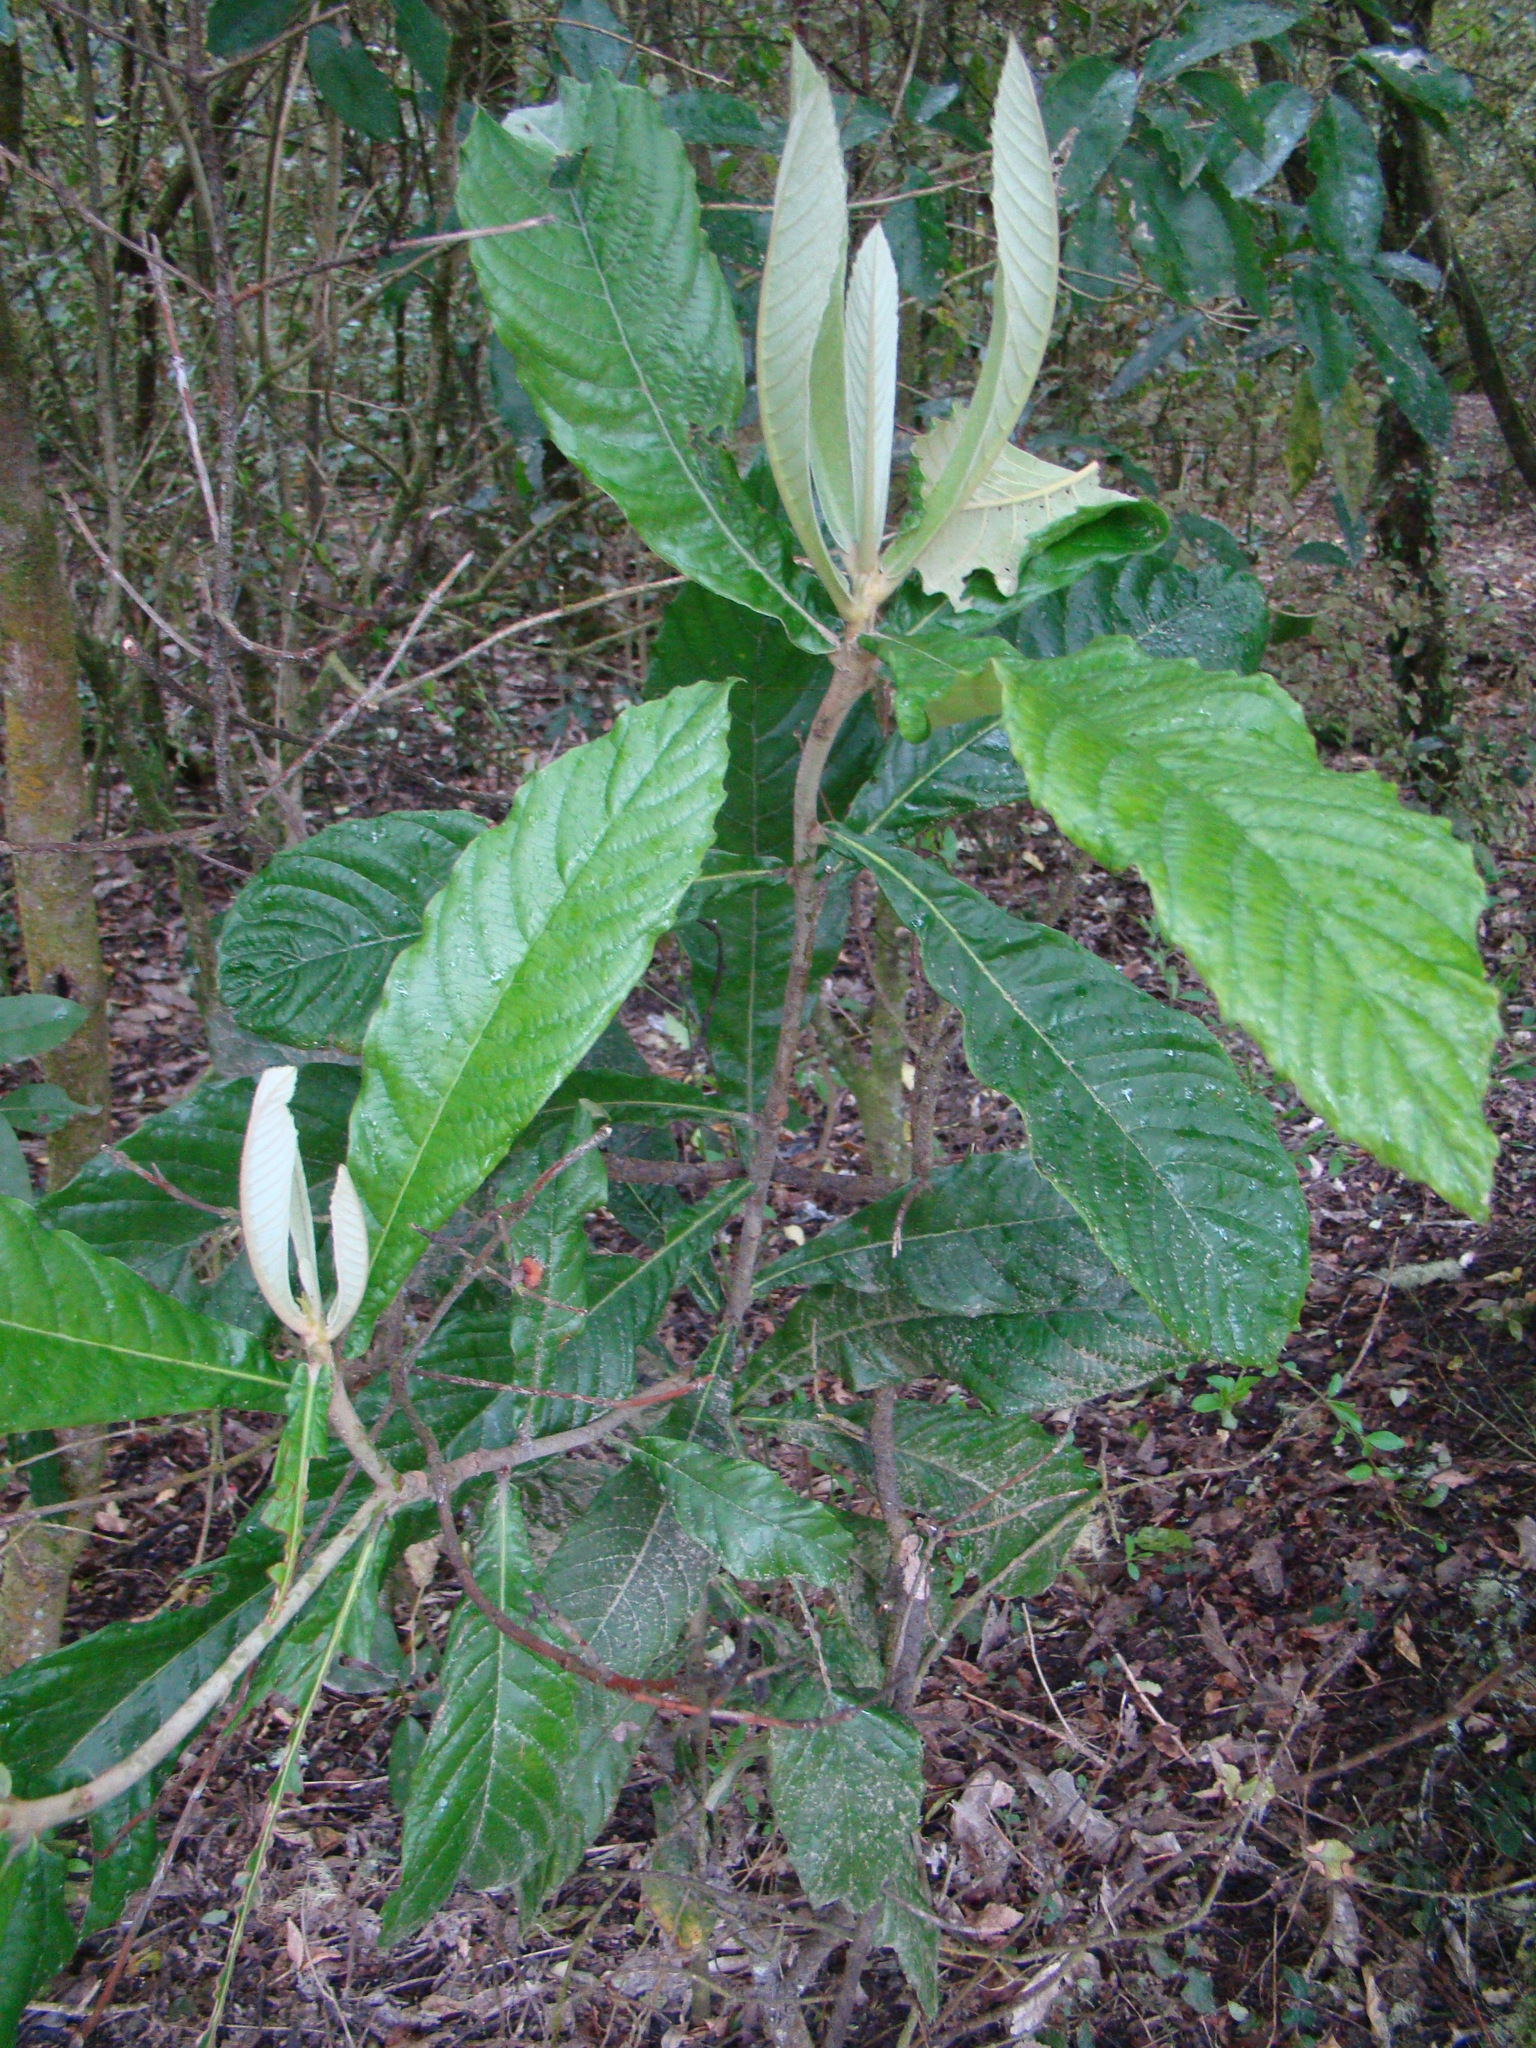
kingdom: Plantae
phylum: Tracheophyta
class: Magnoliopsida
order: Rosales
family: Rosaceae
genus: Rhaphiolepis
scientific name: Rhaphiolepis bibas
